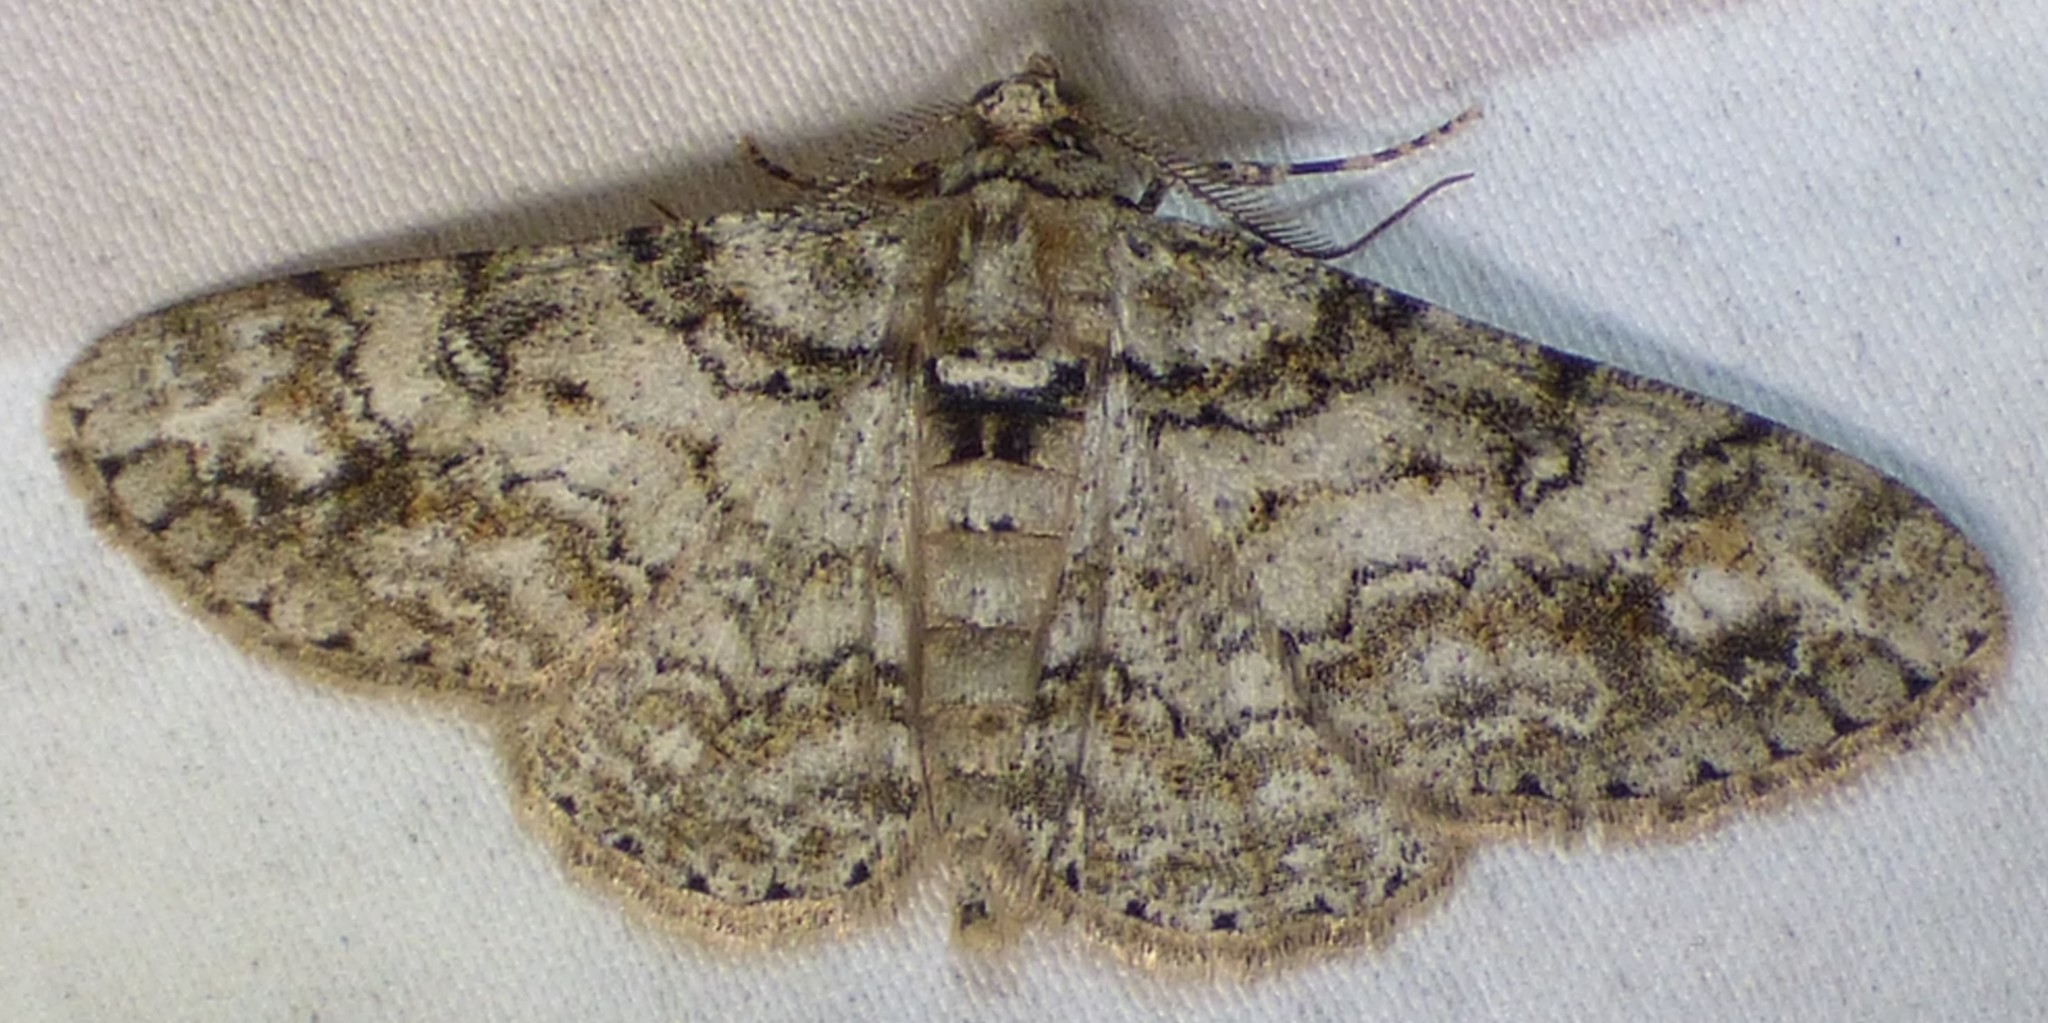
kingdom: Animalia
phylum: Arthropoda
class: Insecta
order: Lepidoptera
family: Geometridae
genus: Cleora
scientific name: Cleora sublunaria
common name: Double-lined gray
